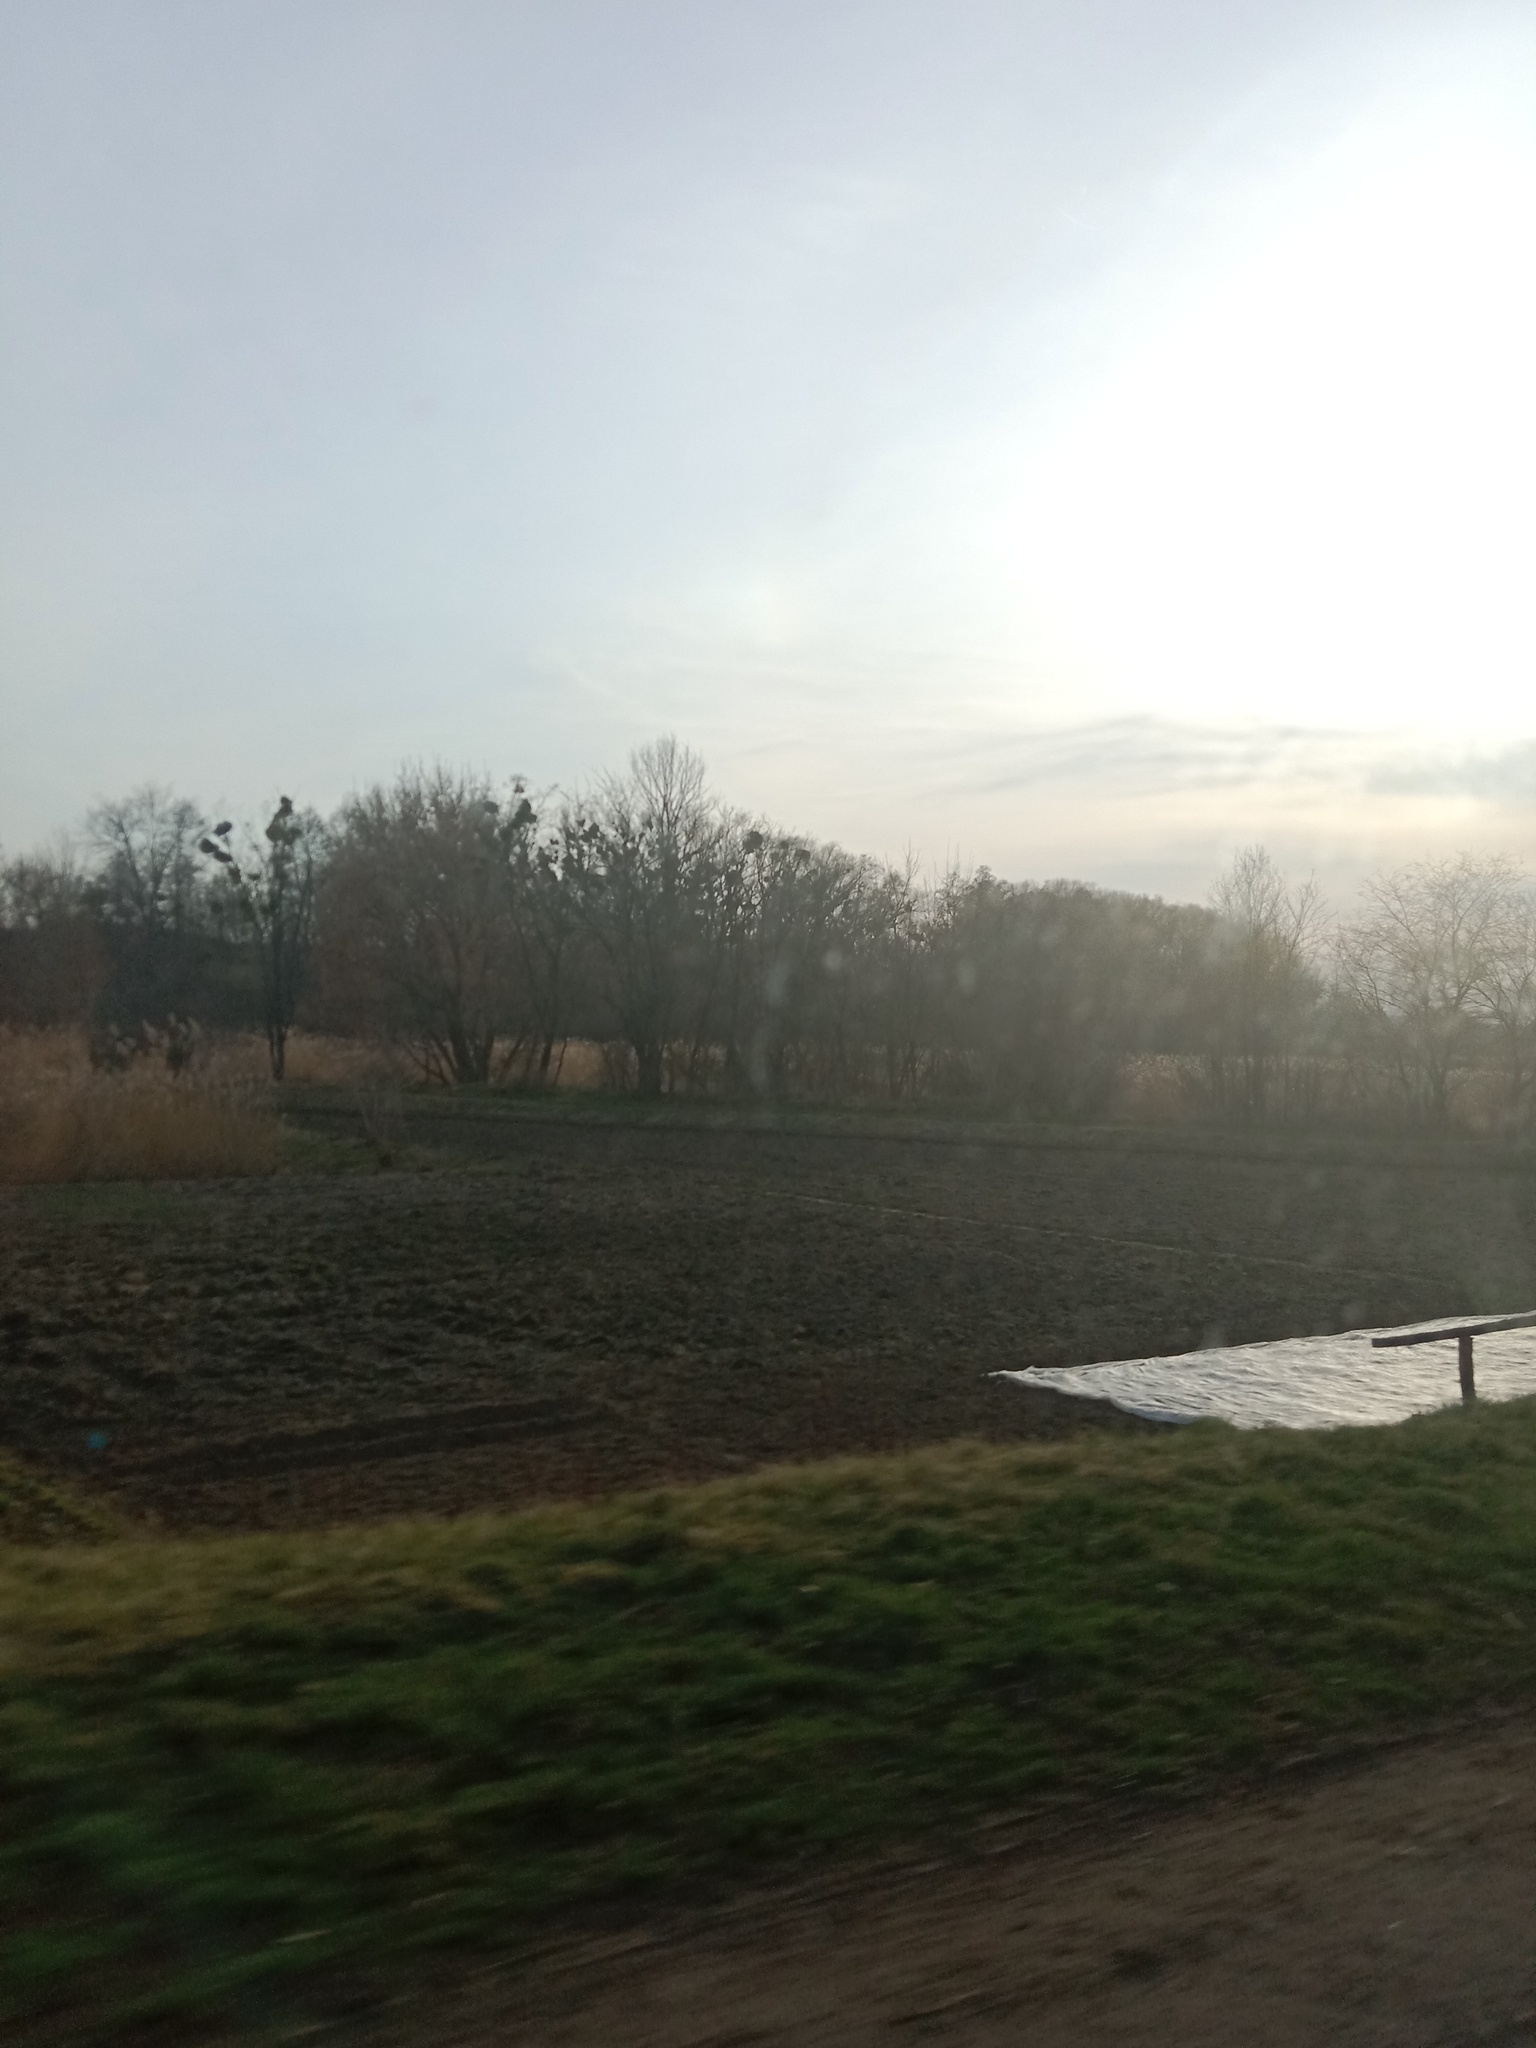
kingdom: Plantae
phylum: Tracheophyta
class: Magnoliopsida
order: Santalales
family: Viscaceae
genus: Viscum
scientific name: Viscum album
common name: Mistletoe
